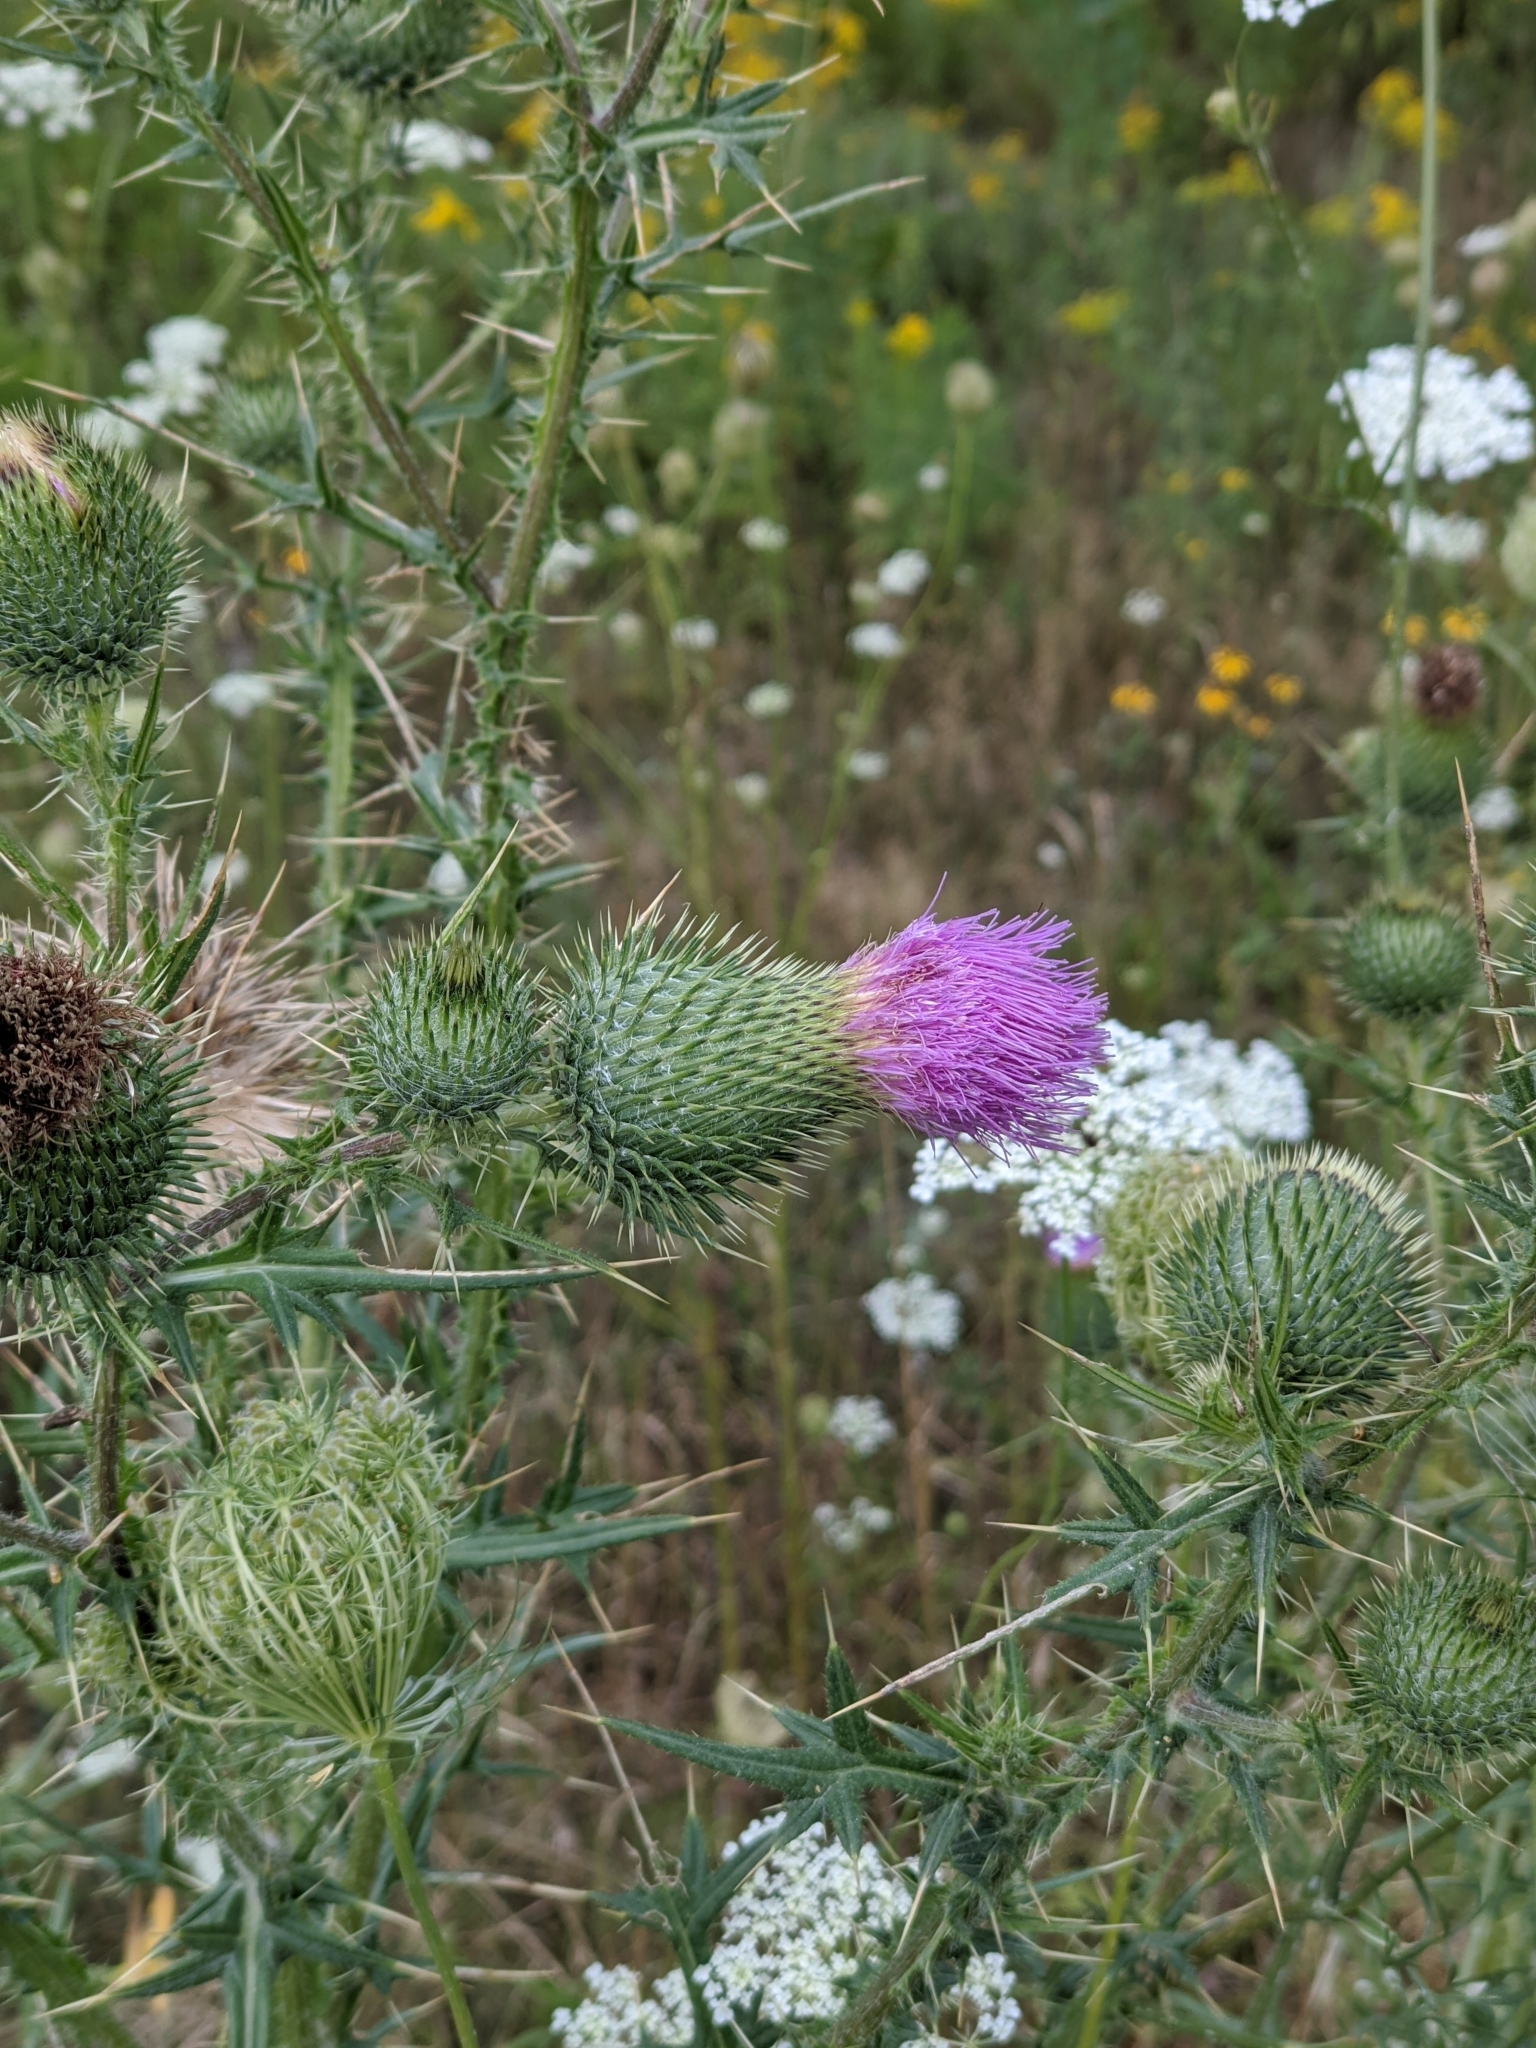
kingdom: Plantae
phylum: Tracheophyta
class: Magnoliopsida
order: Asterales
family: Asteraceae
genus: Cirsium
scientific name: Cirsium vulgare
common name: Bull thistle
